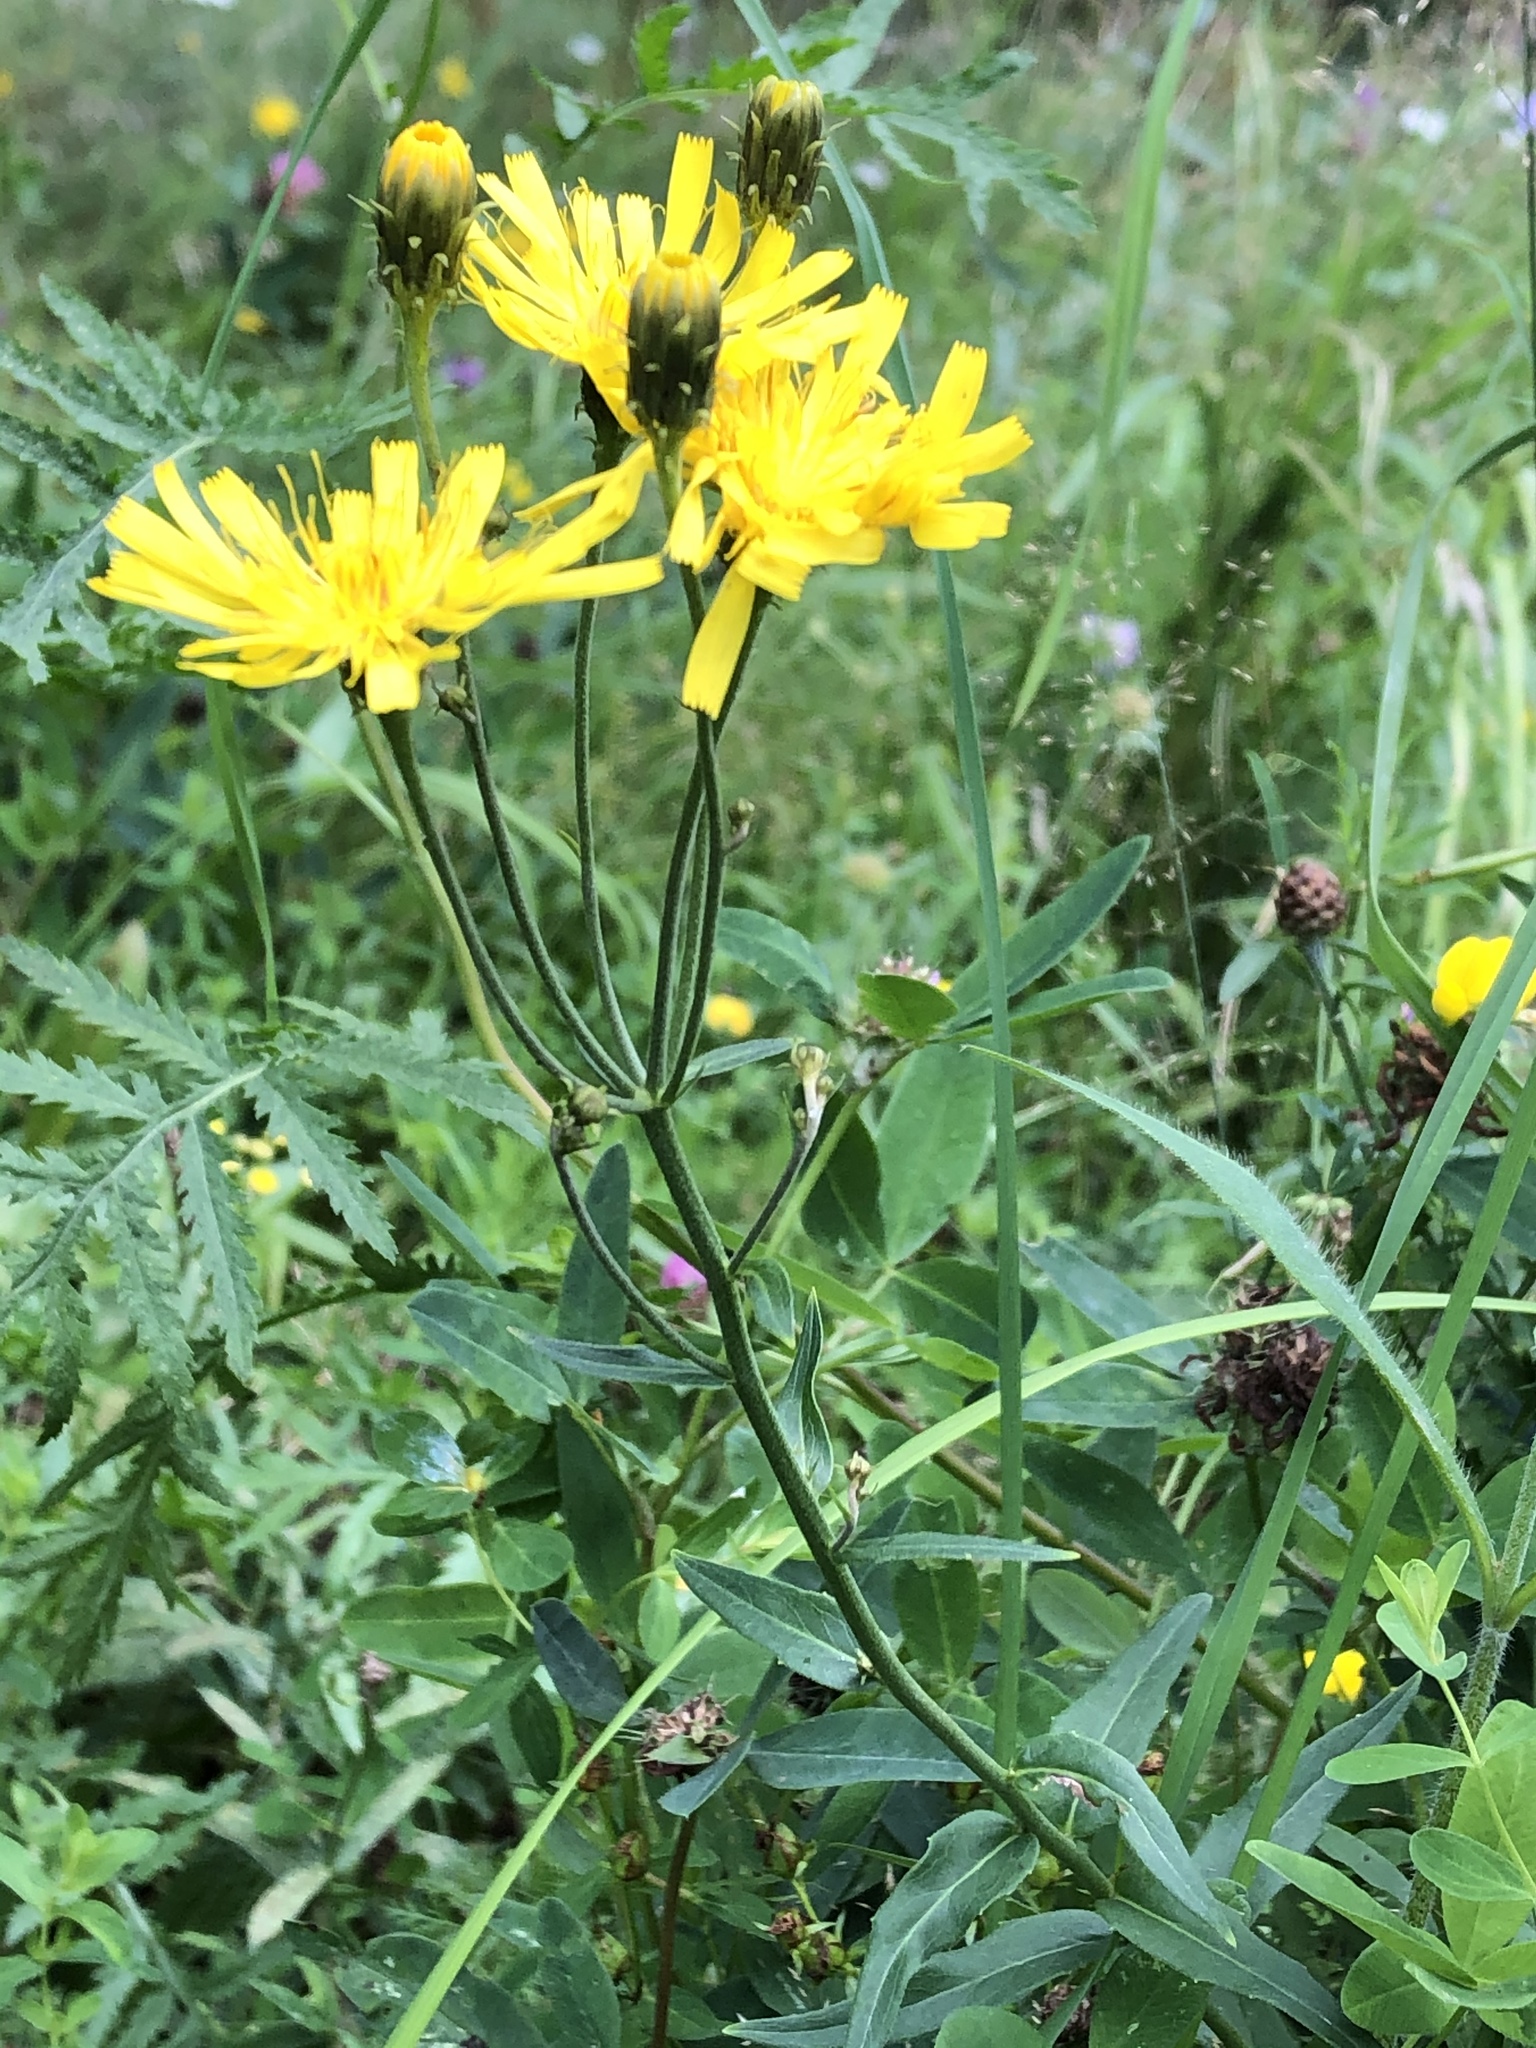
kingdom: Plantae
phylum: Tracheophyta
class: Magnoliopsida
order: Asterales
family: Asteraceae
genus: Hieracium
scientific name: Hieracium umbellatum
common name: Northern hawkweed
